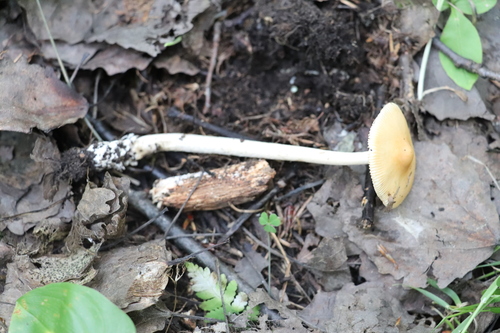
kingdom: Fungi
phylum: Basidiomycota
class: Agaricomycetes
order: Agaricales
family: Amanitaceae
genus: Amanita
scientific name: Amanita crocea
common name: Orange grisette
